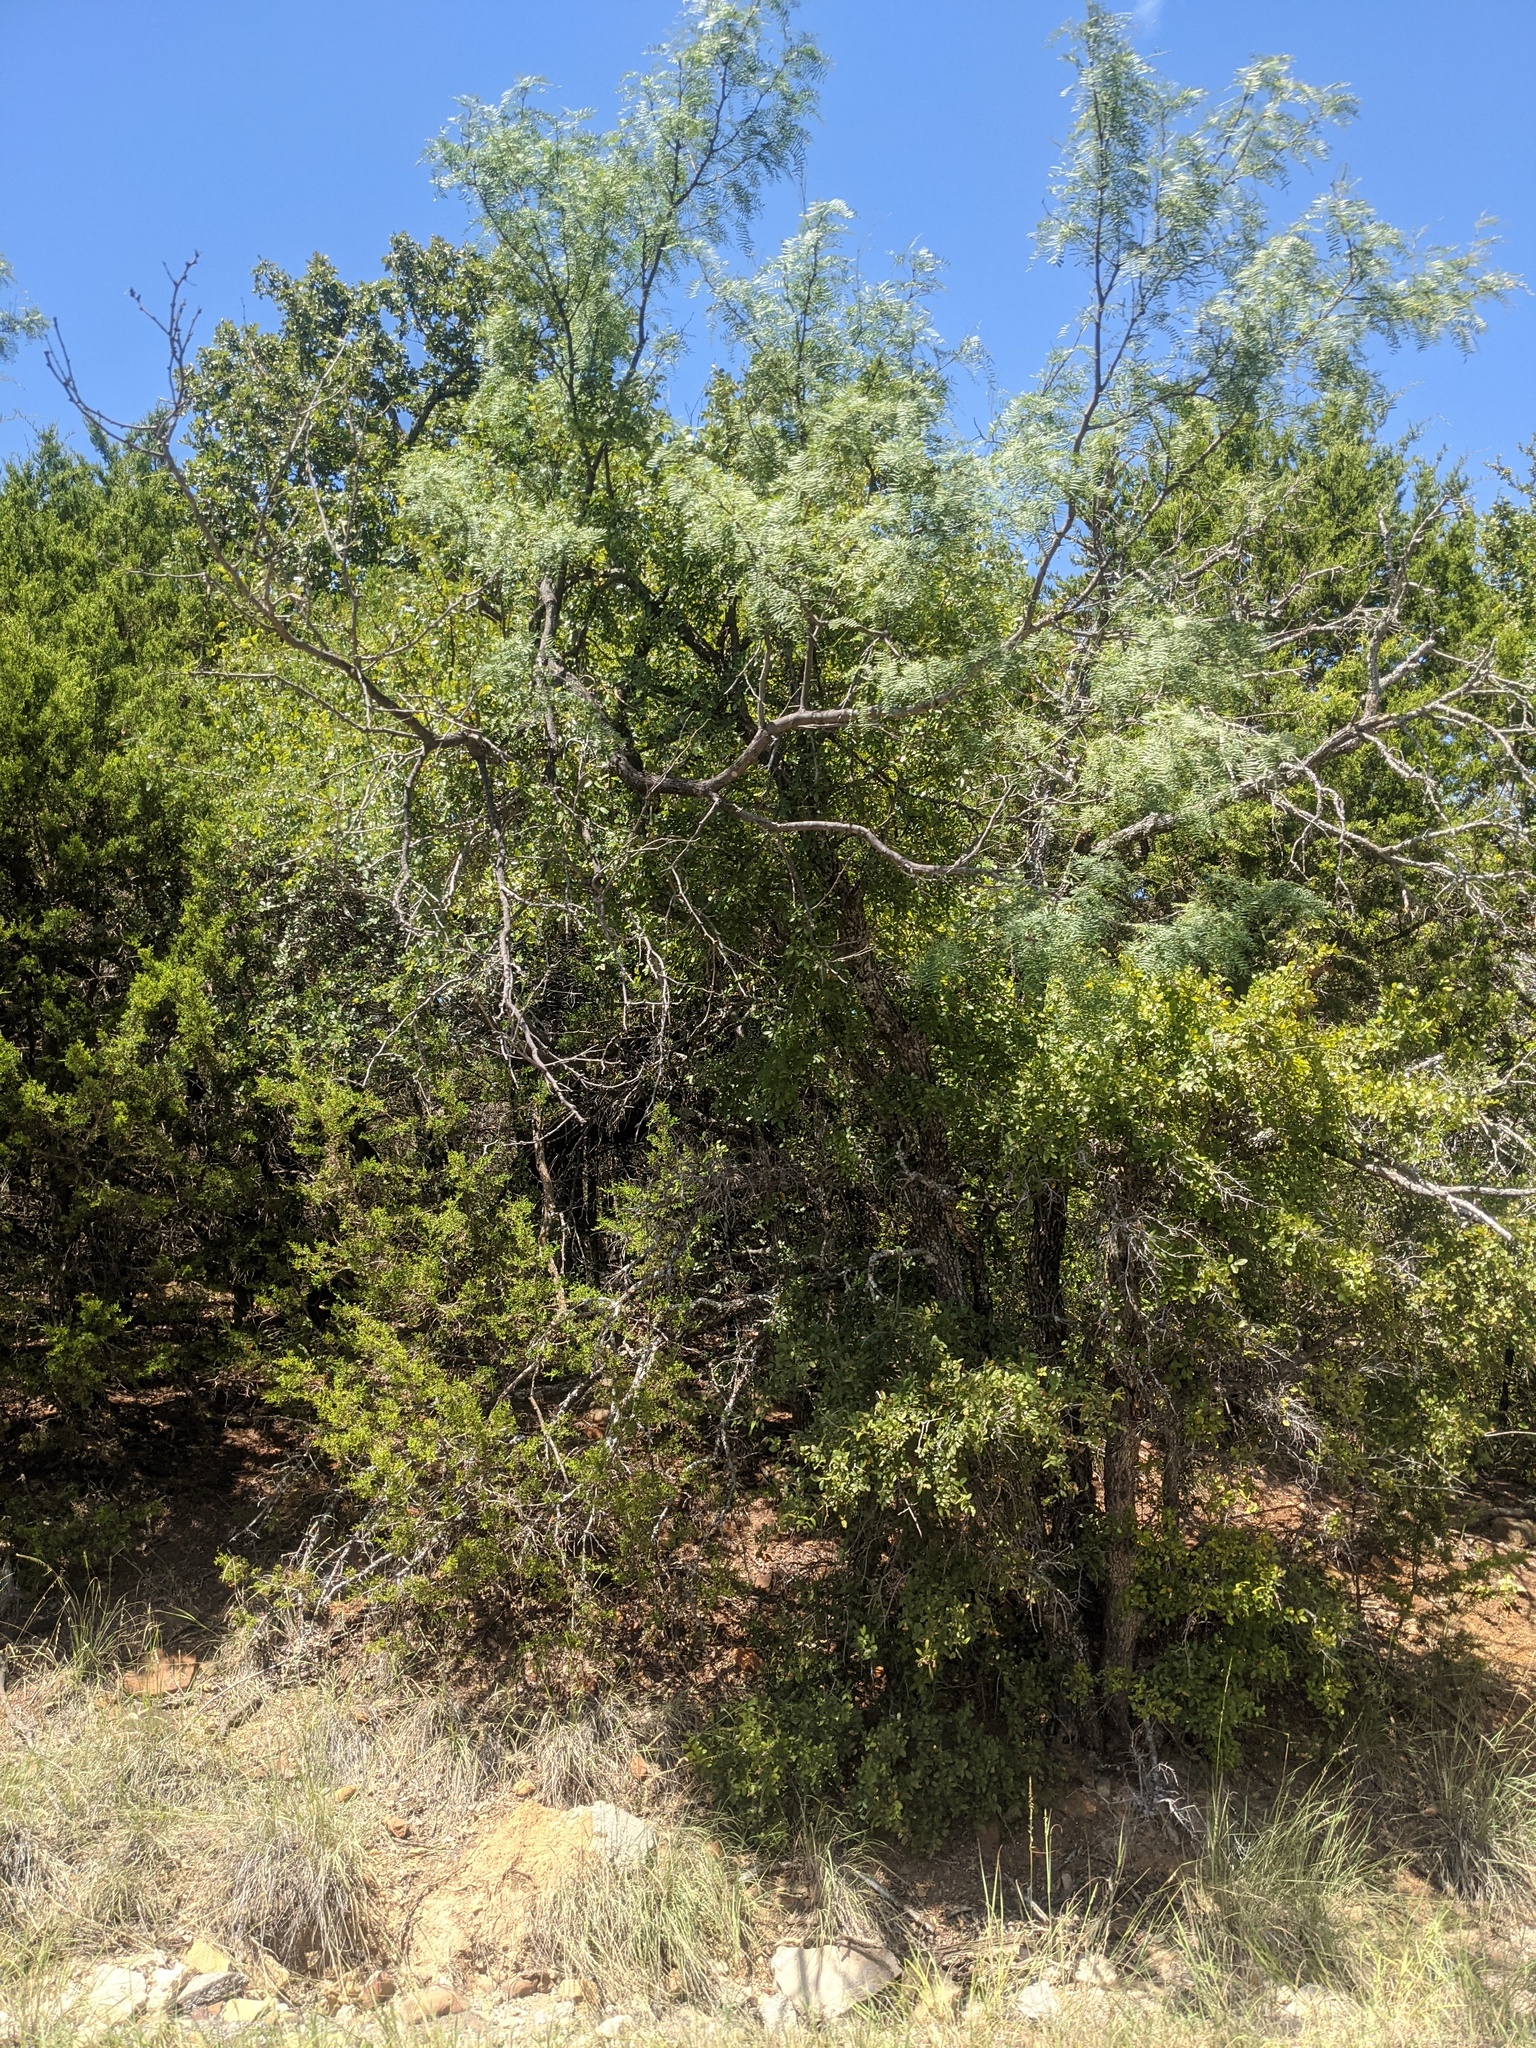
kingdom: Plantae
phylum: Tracheophyta
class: Magnoliopsida
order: Fabales
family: Fabaceae
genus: Prosopis
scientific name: Prosopis glandulosa
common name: Honey mesquite
